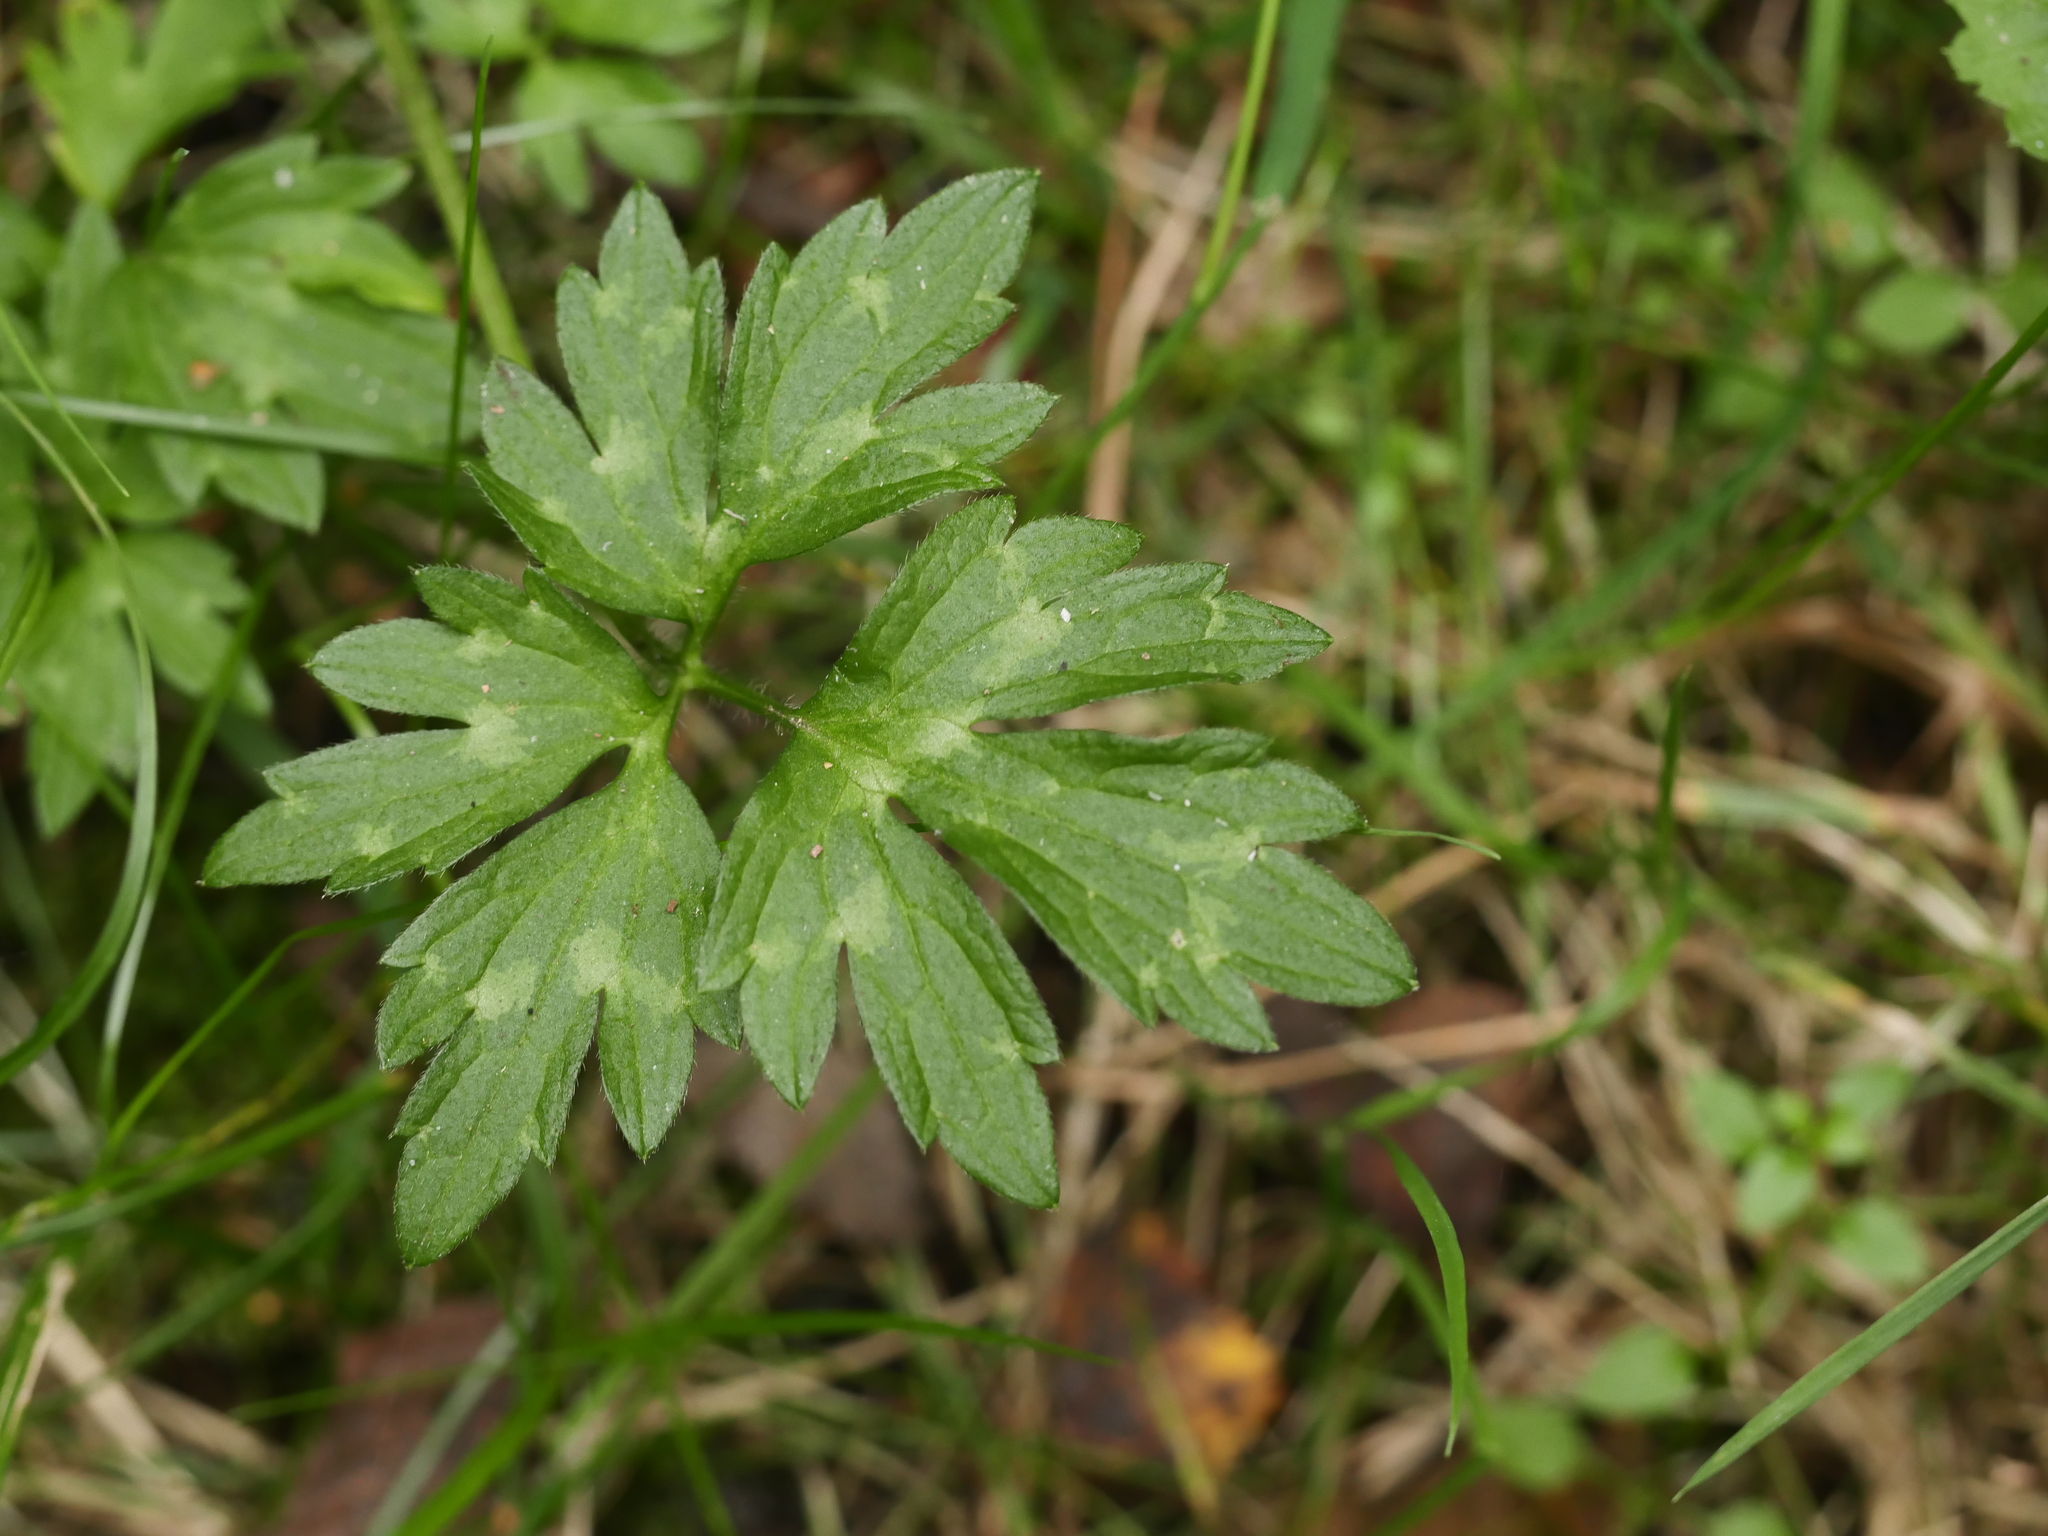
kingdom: Plantae
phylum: Tracheophyta
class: Magnoliopsida
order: Ranunculales
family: Ranunculaceae
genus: Ranunculus
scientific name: Ranunculus repens
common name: Creeping buttercup
